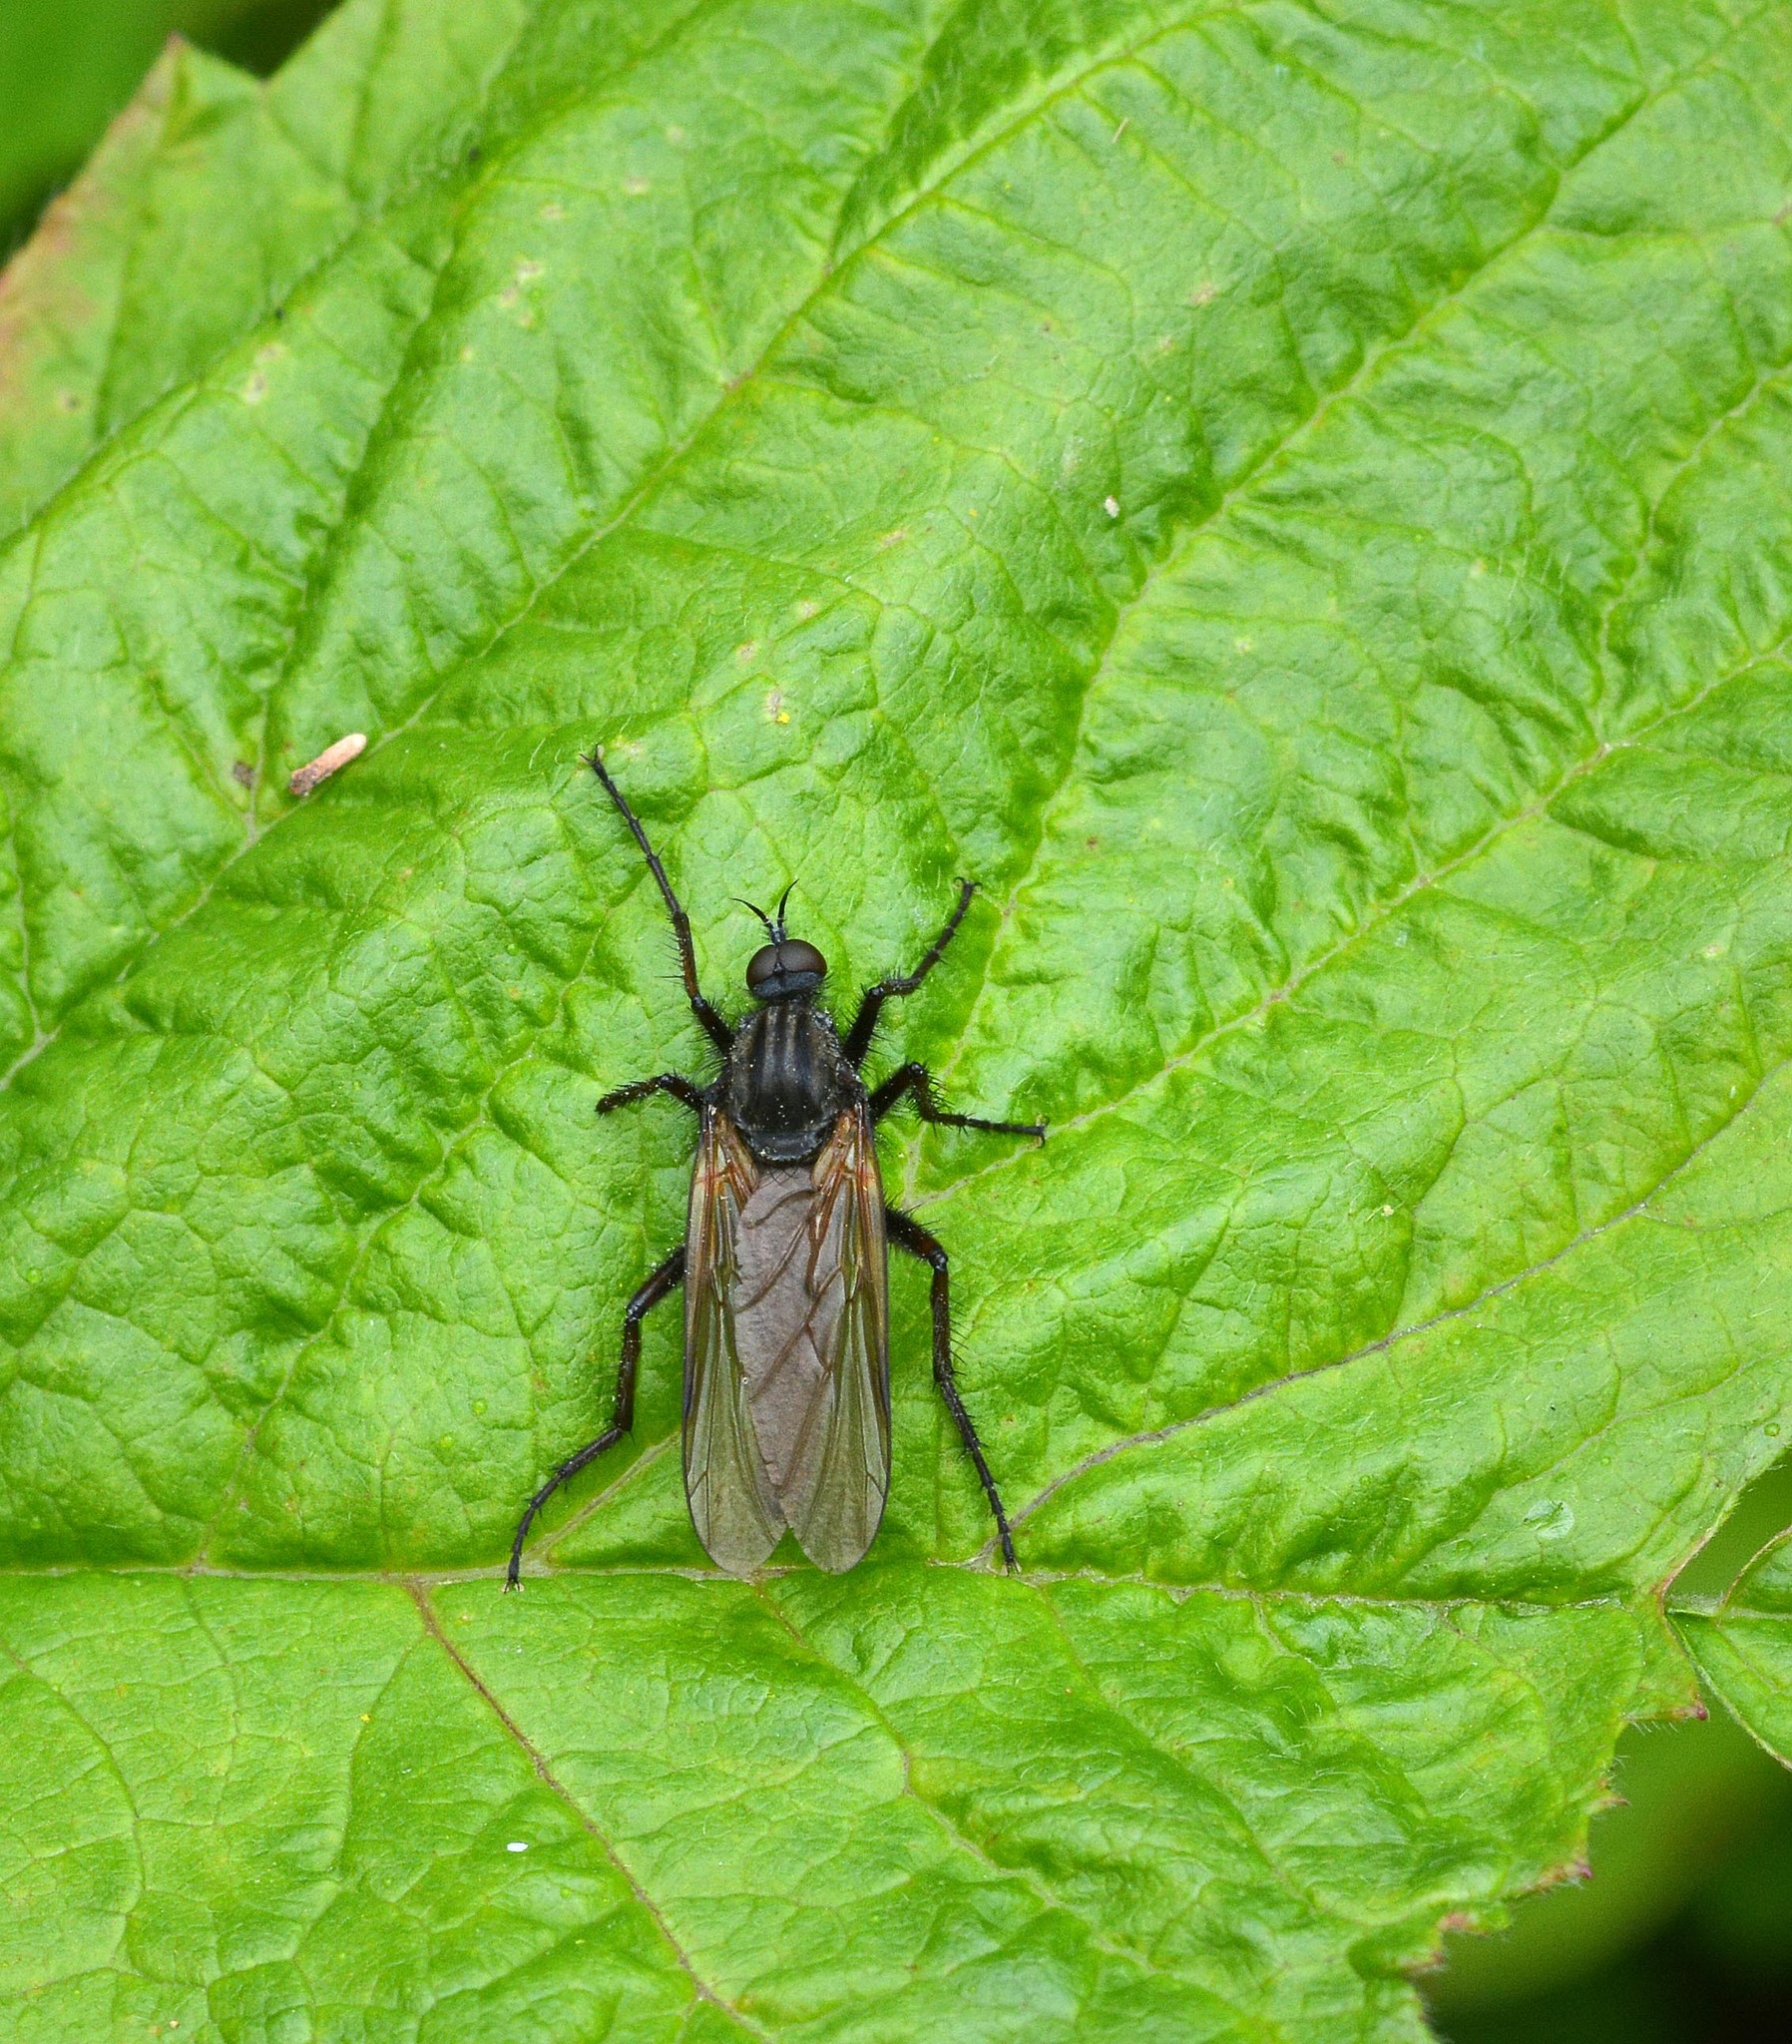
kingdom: Animalia
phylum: Arthropoda
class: Insecta
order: Diptera
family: Empididae
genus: Empis
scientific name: Empis tessellata
